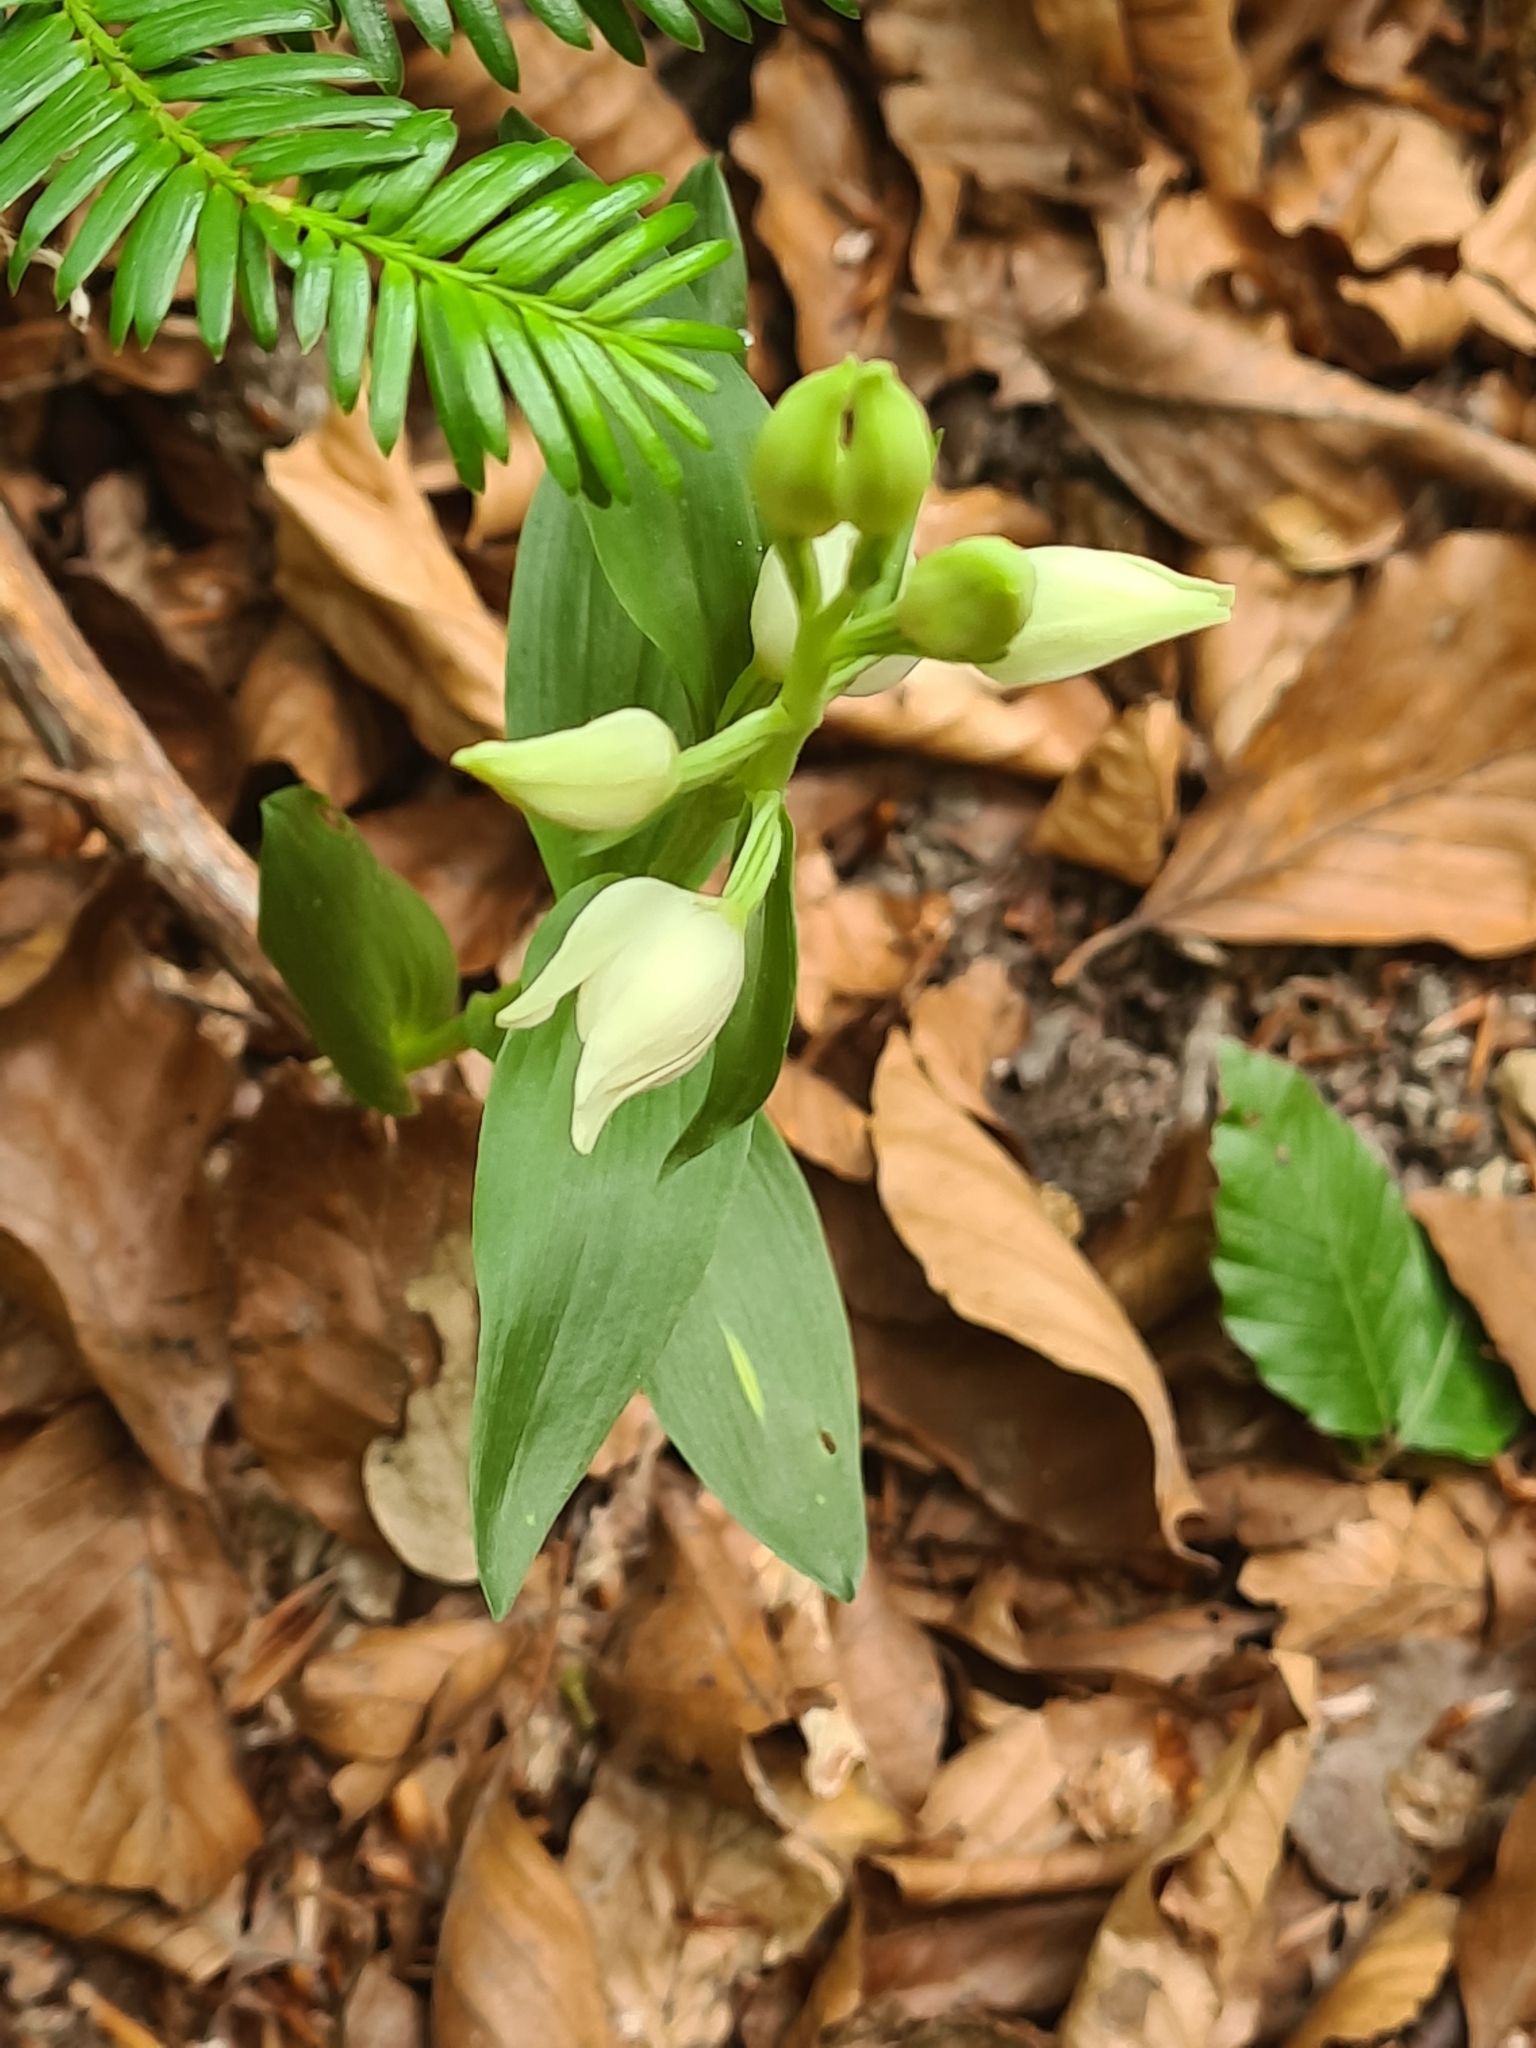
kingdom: Plantae
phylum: Tracheophyta
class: Liliopsida
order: Asparagales
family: Orchidaceae
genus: Cephalanthera
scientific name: Cephalanthera damasonium
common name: White helleborine
